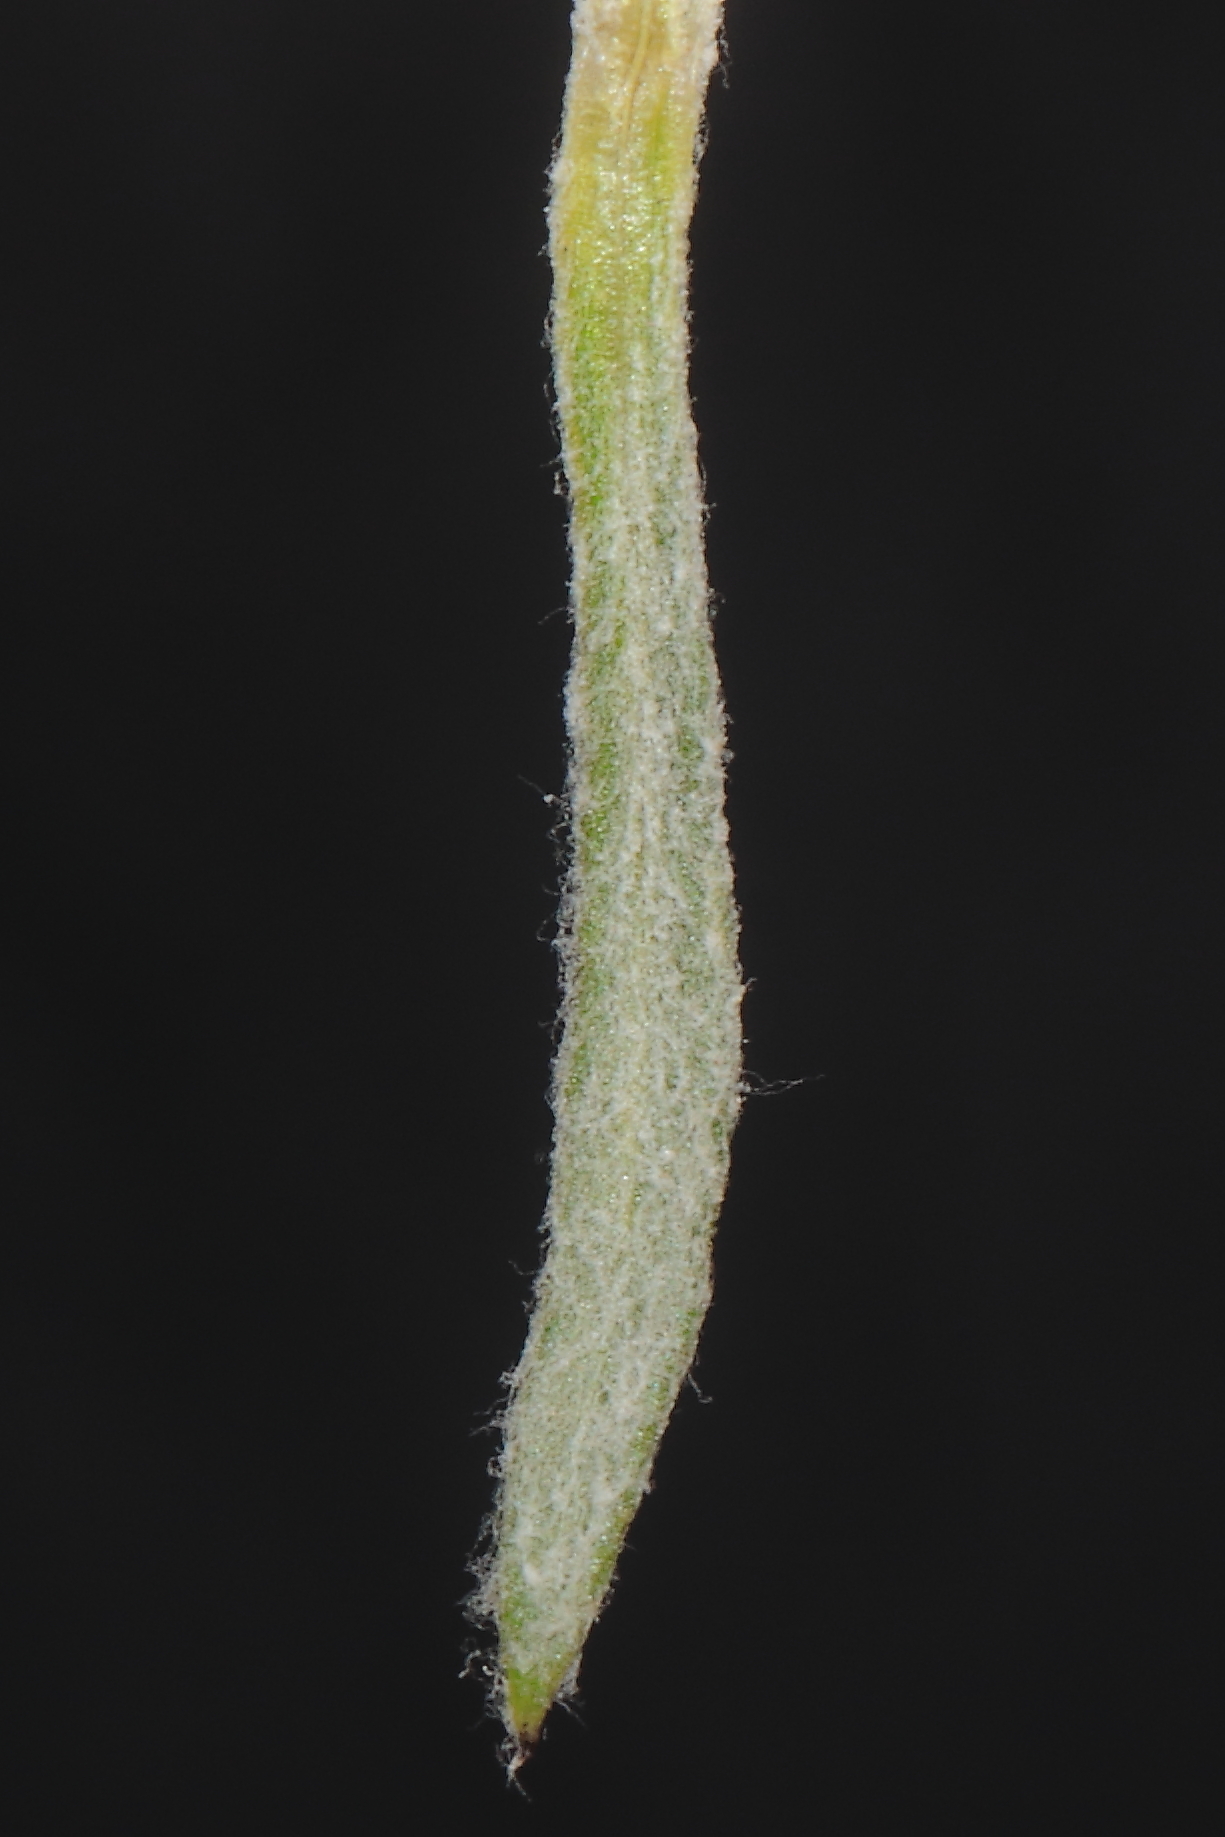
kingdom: Plantae
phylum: Tracheophyta
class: Magnoliopsida
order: Asterales
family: Asteraceae
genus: Culcitium
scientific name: Culcitium humile
